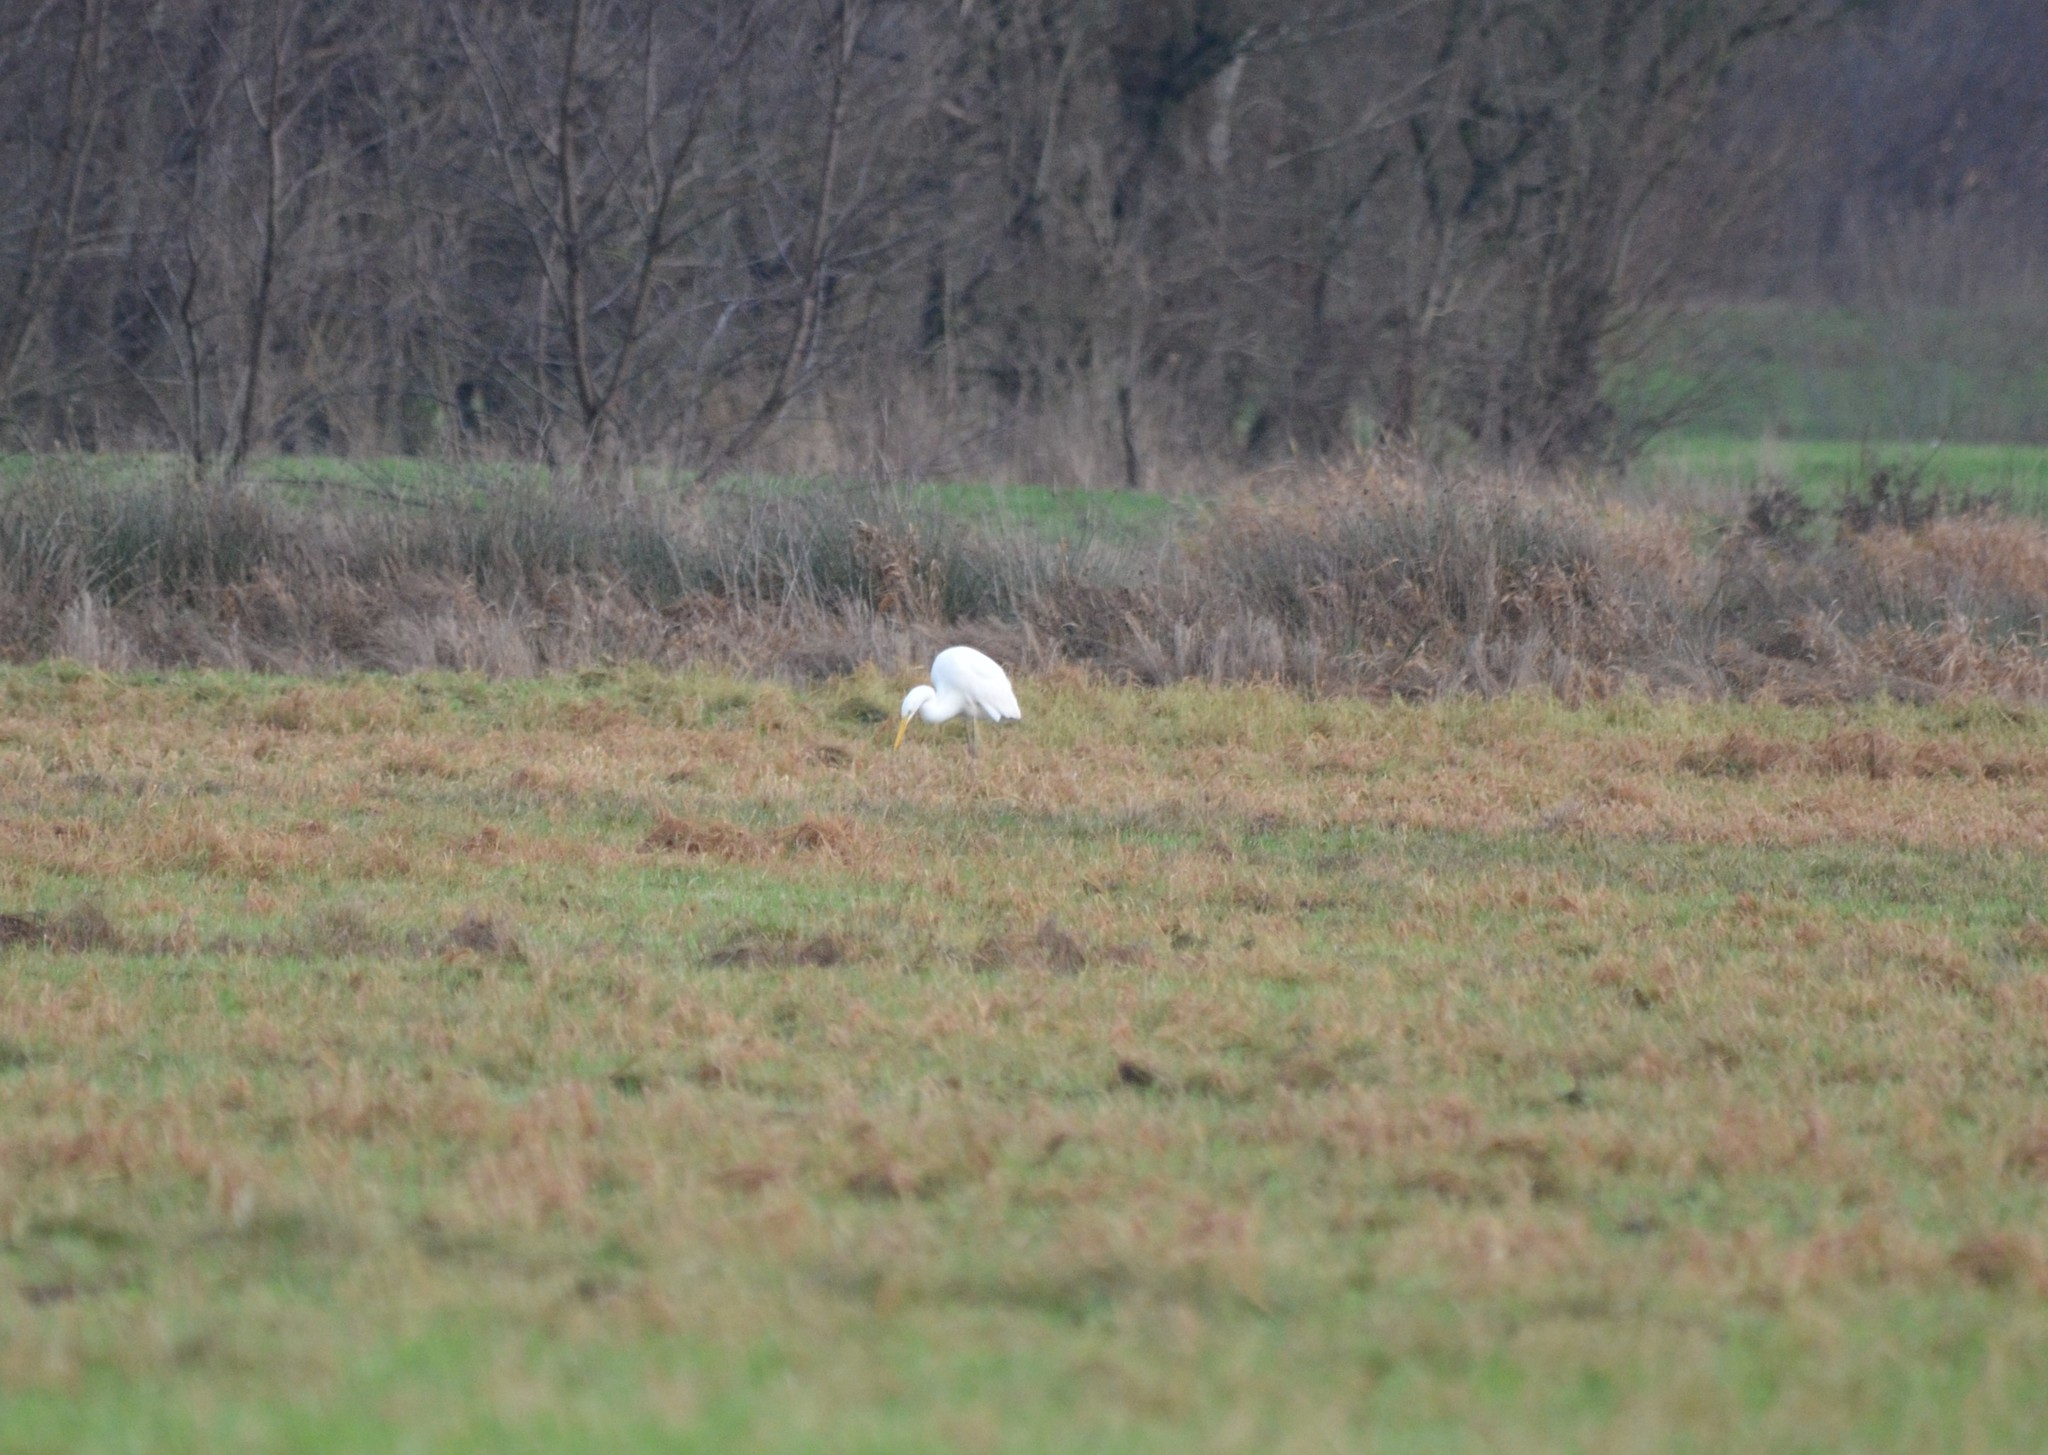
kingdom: Animalia
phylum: Chordata
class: Aves
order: Pelecaniformes
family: Ardeidae
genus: Ardea
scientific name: Ardea alba
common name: Great egret
